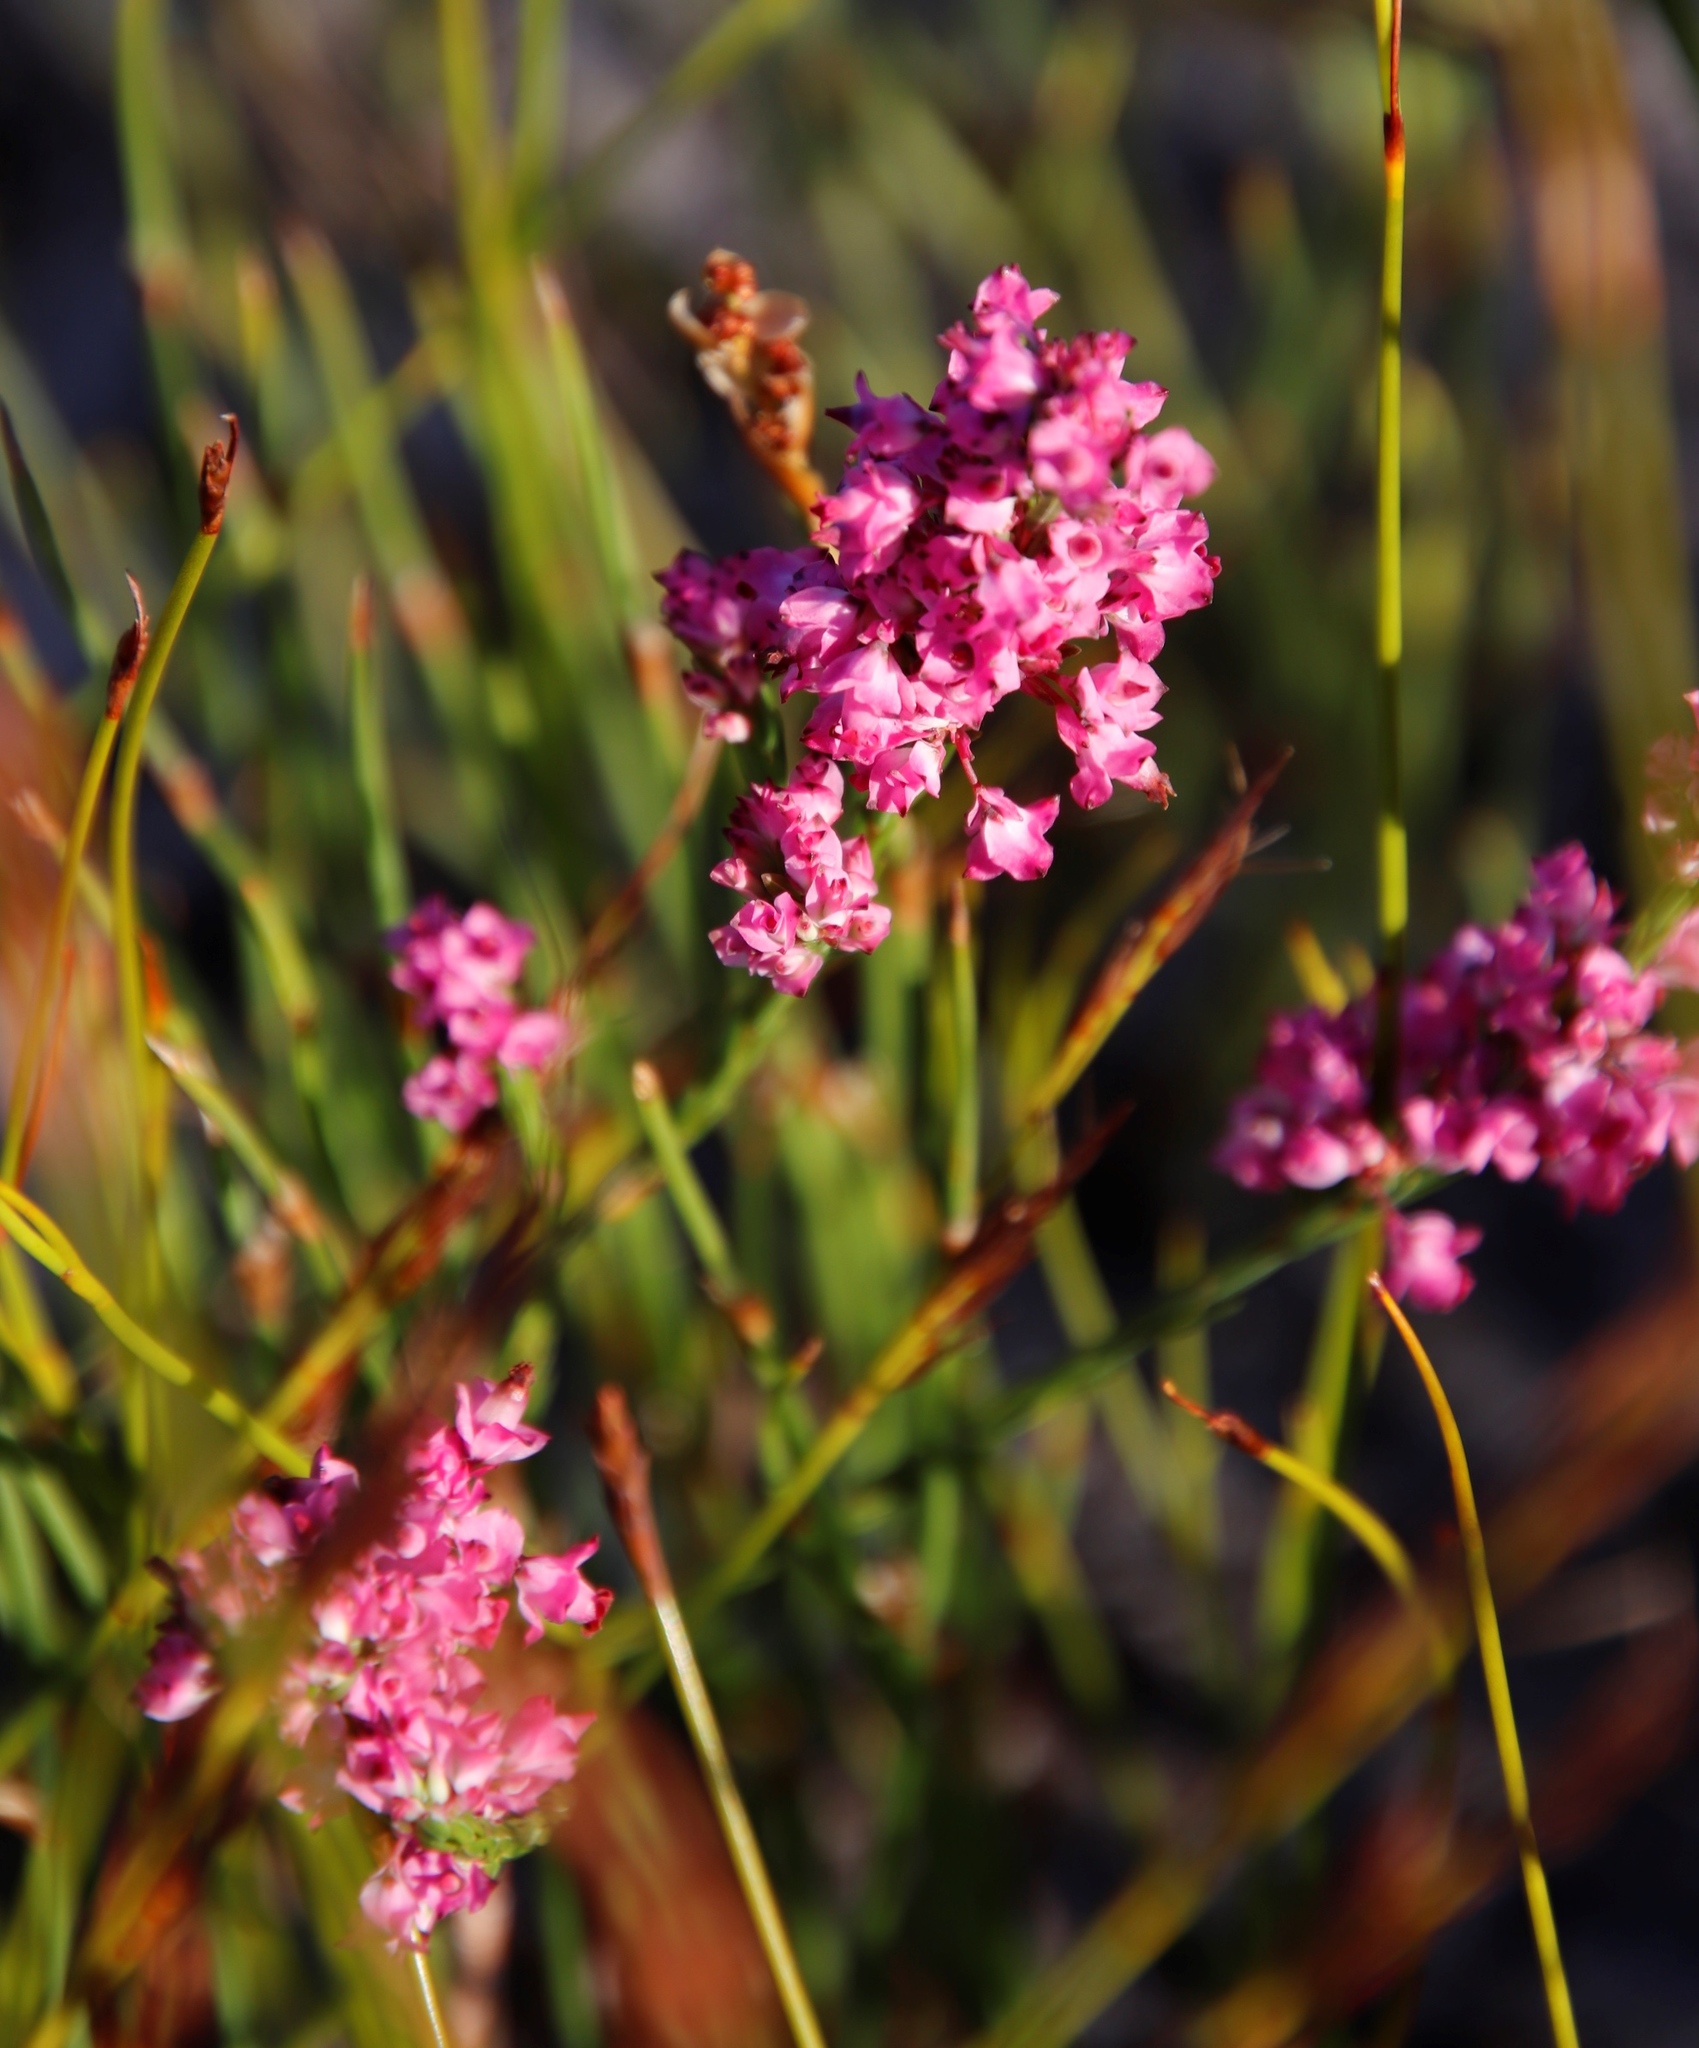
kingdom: Plantae
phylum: Tracheophyta
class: Magnoliopsida
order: Ericales
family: Ericaceae
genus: Erica
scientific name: Erica corifolia
